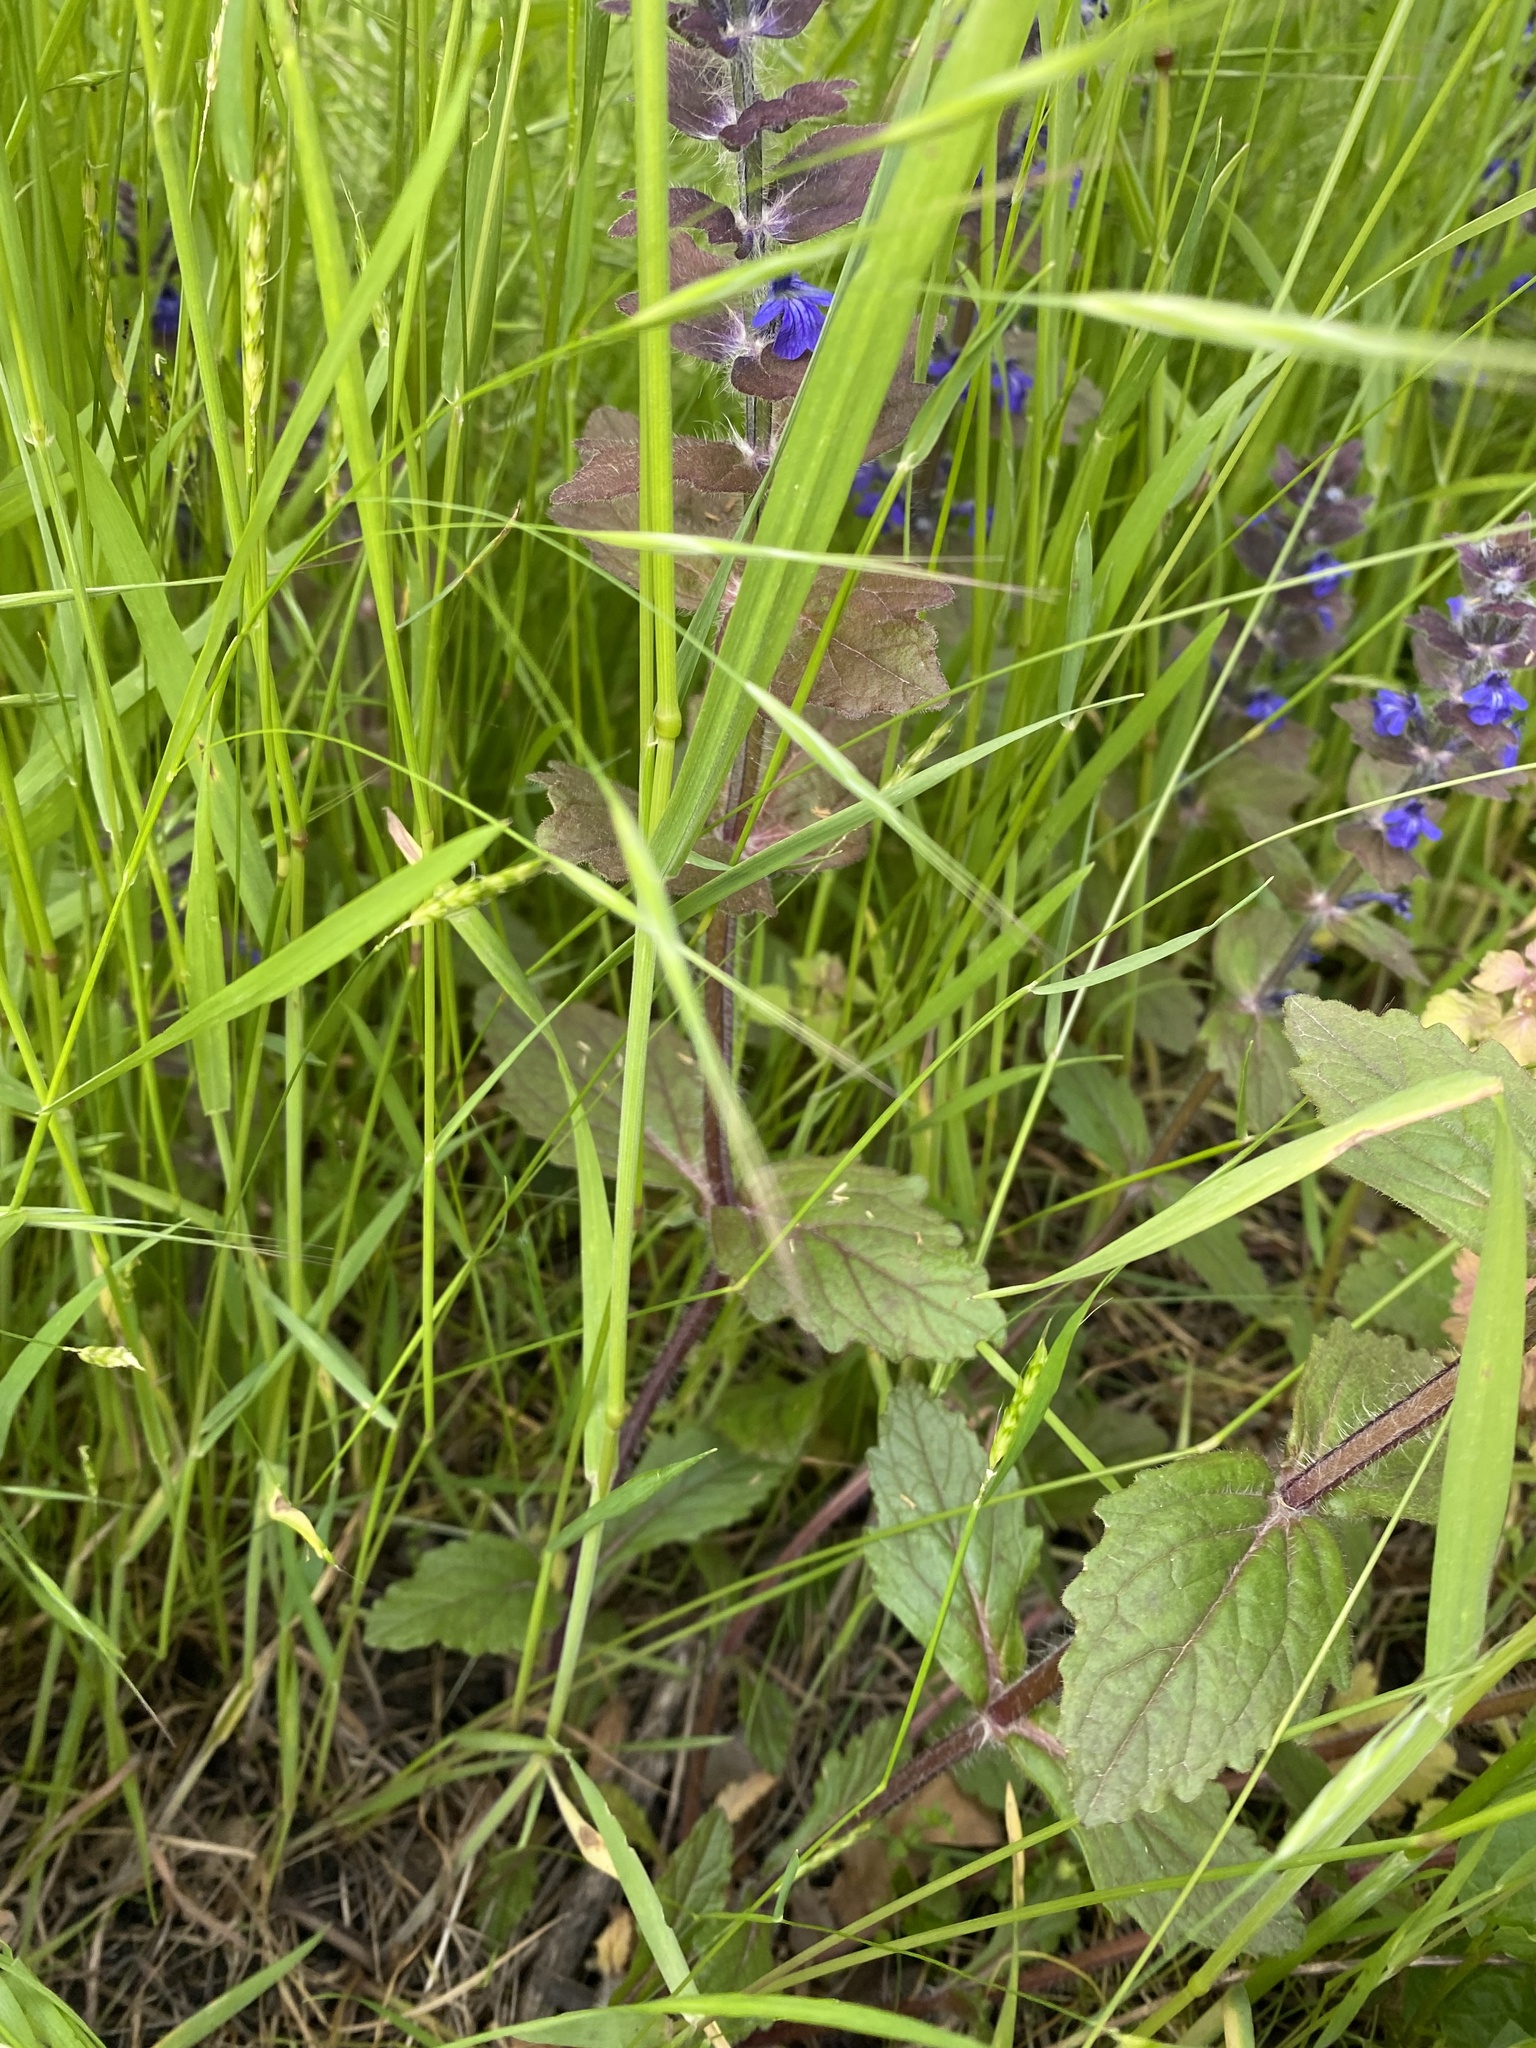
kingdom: Plantae
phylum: Tracheophyta
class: Magnoliopsida
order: Lamiales
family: Lamiaceae
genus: Ajuga
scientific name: Ajuga genevensis
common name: Blue bugle
